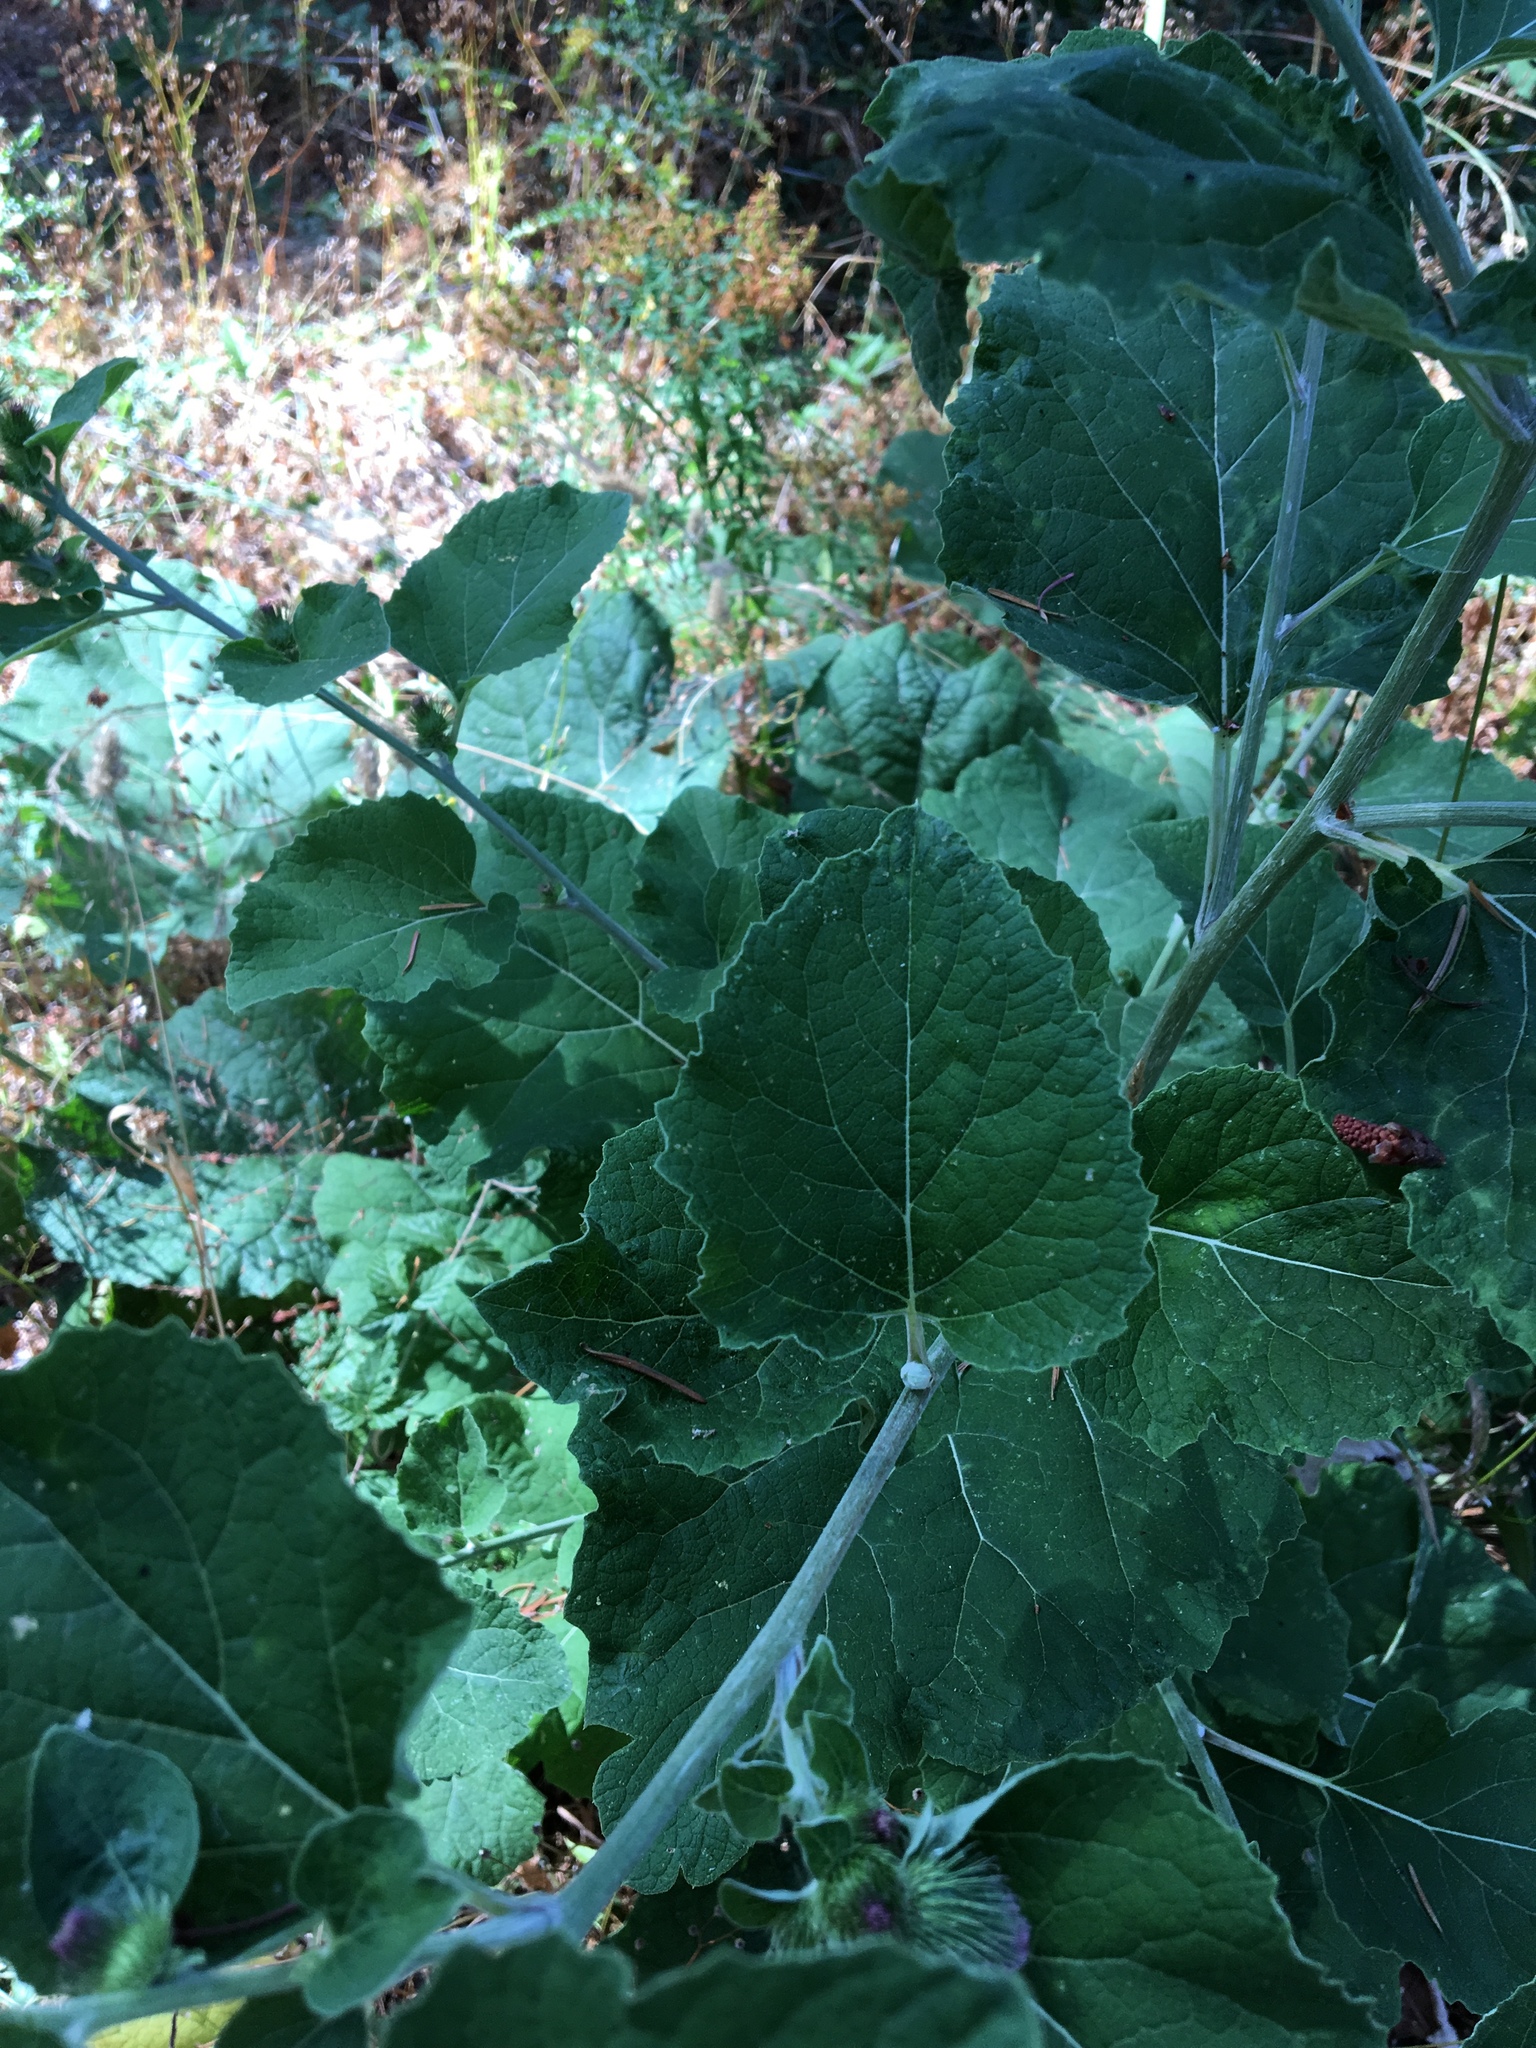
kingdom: Plantae
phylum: Tracheophyta
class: Magnoliopsida
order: Asterales
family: Asteraceae
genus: Arctium
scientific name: Arctium minus
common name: Lesser burdock
